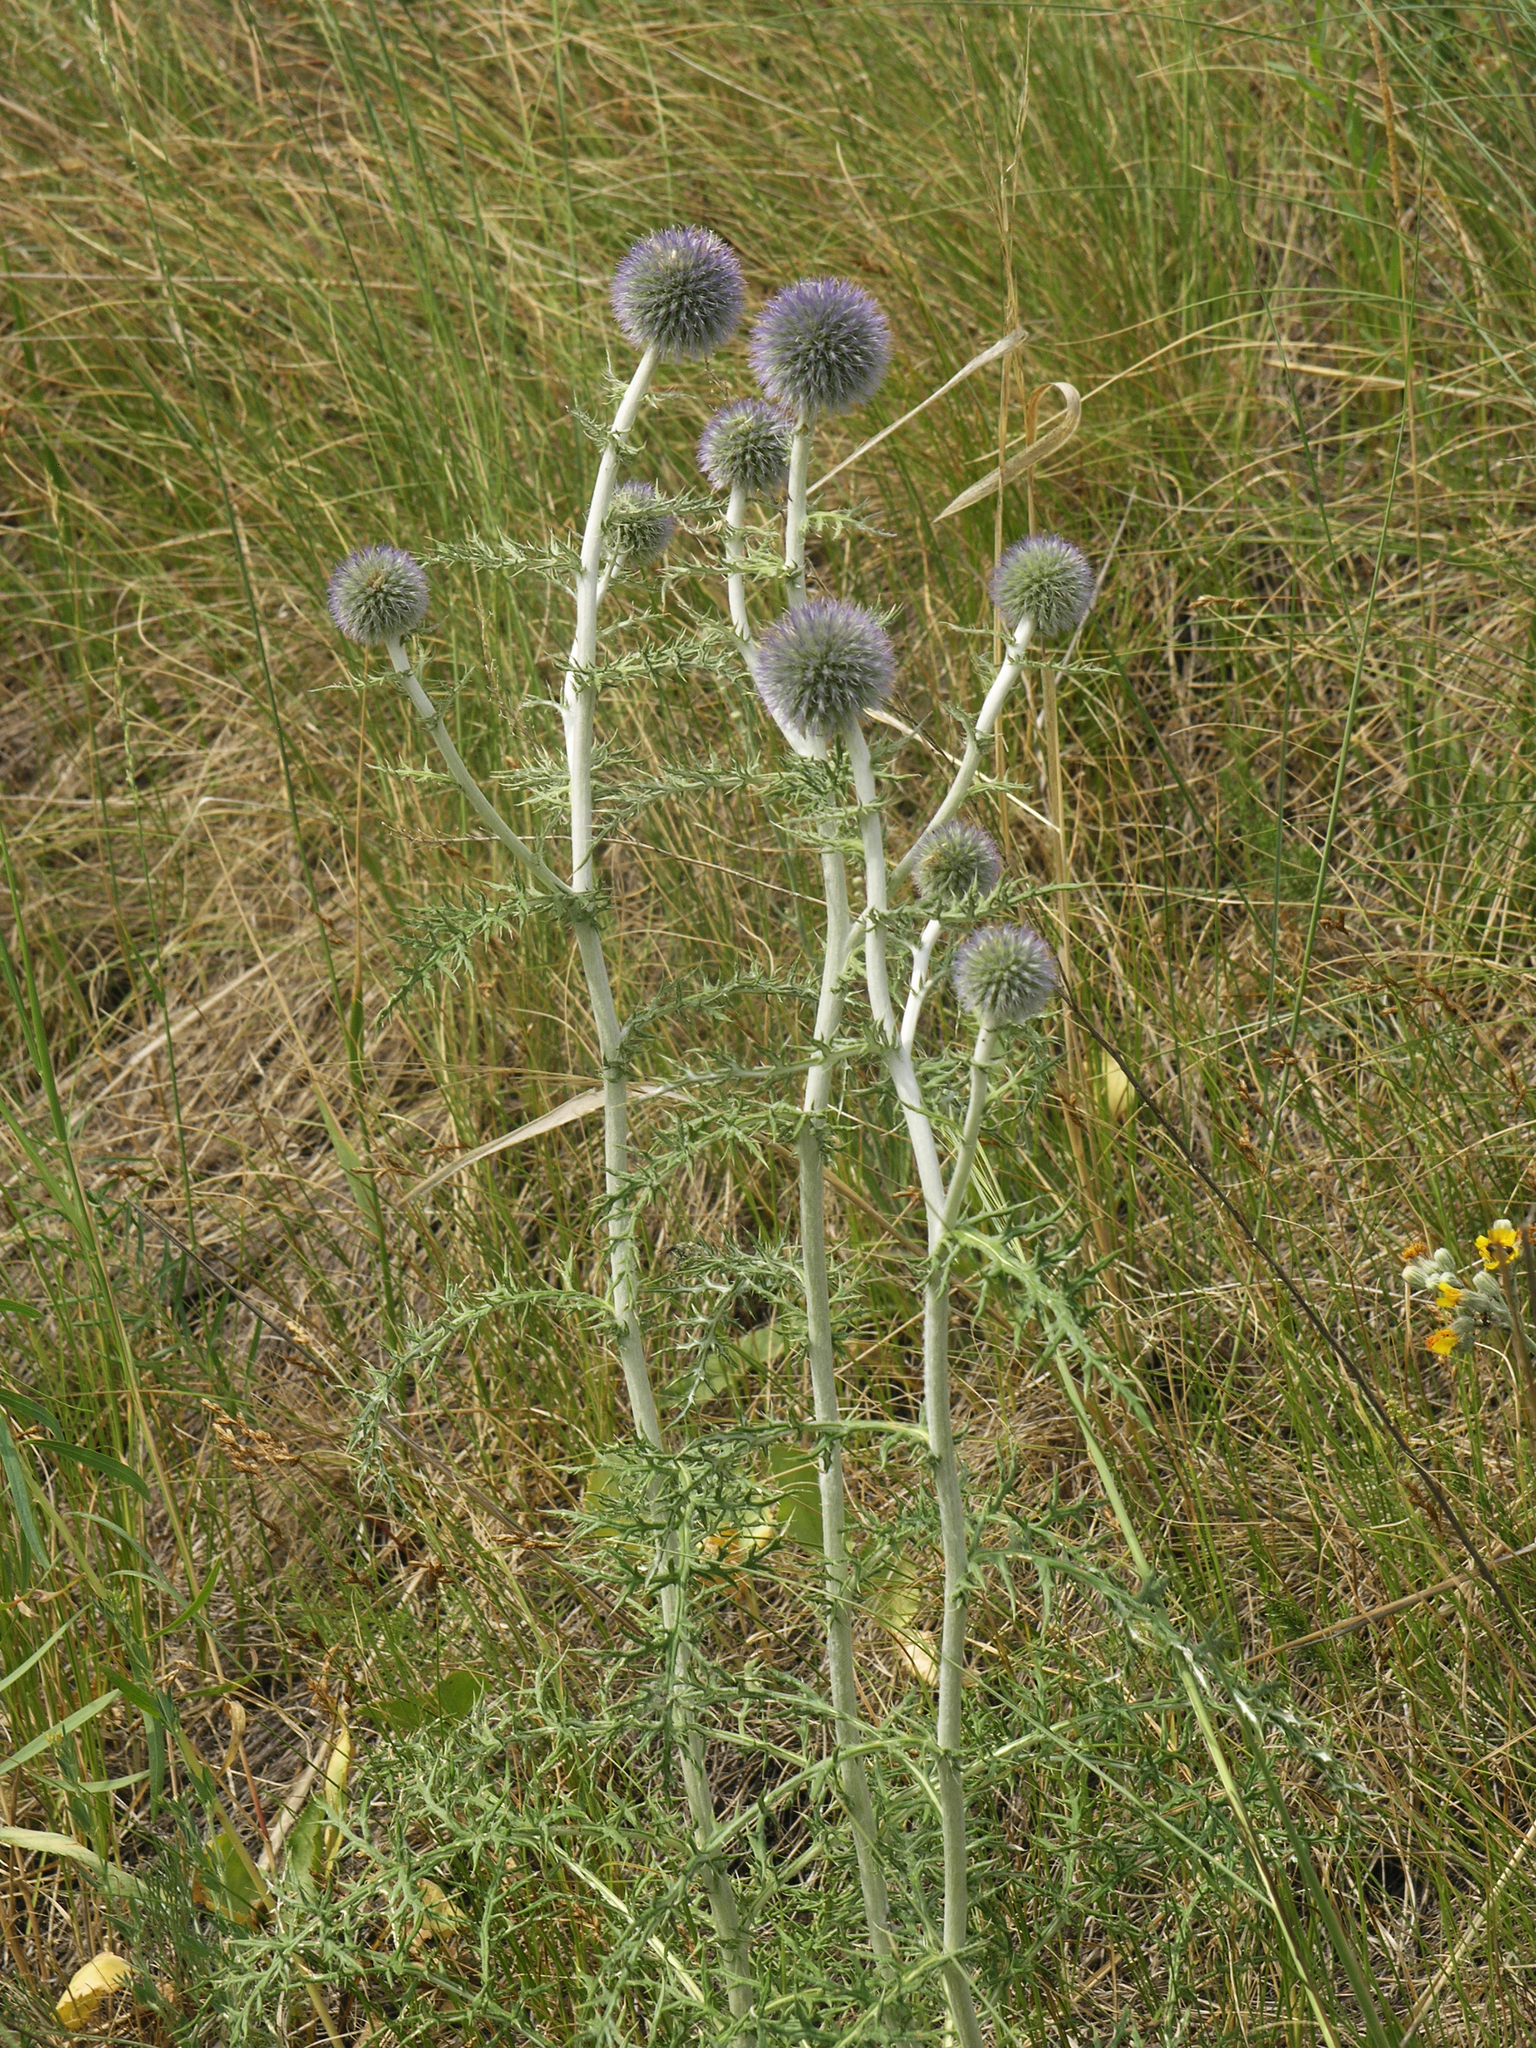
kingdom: Plantae
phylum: Tracheophyta
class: Magnoliopsida
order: Asterales
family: Asteraceae
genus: Echinops
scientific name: Echinops ritro
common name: Globe thistle
